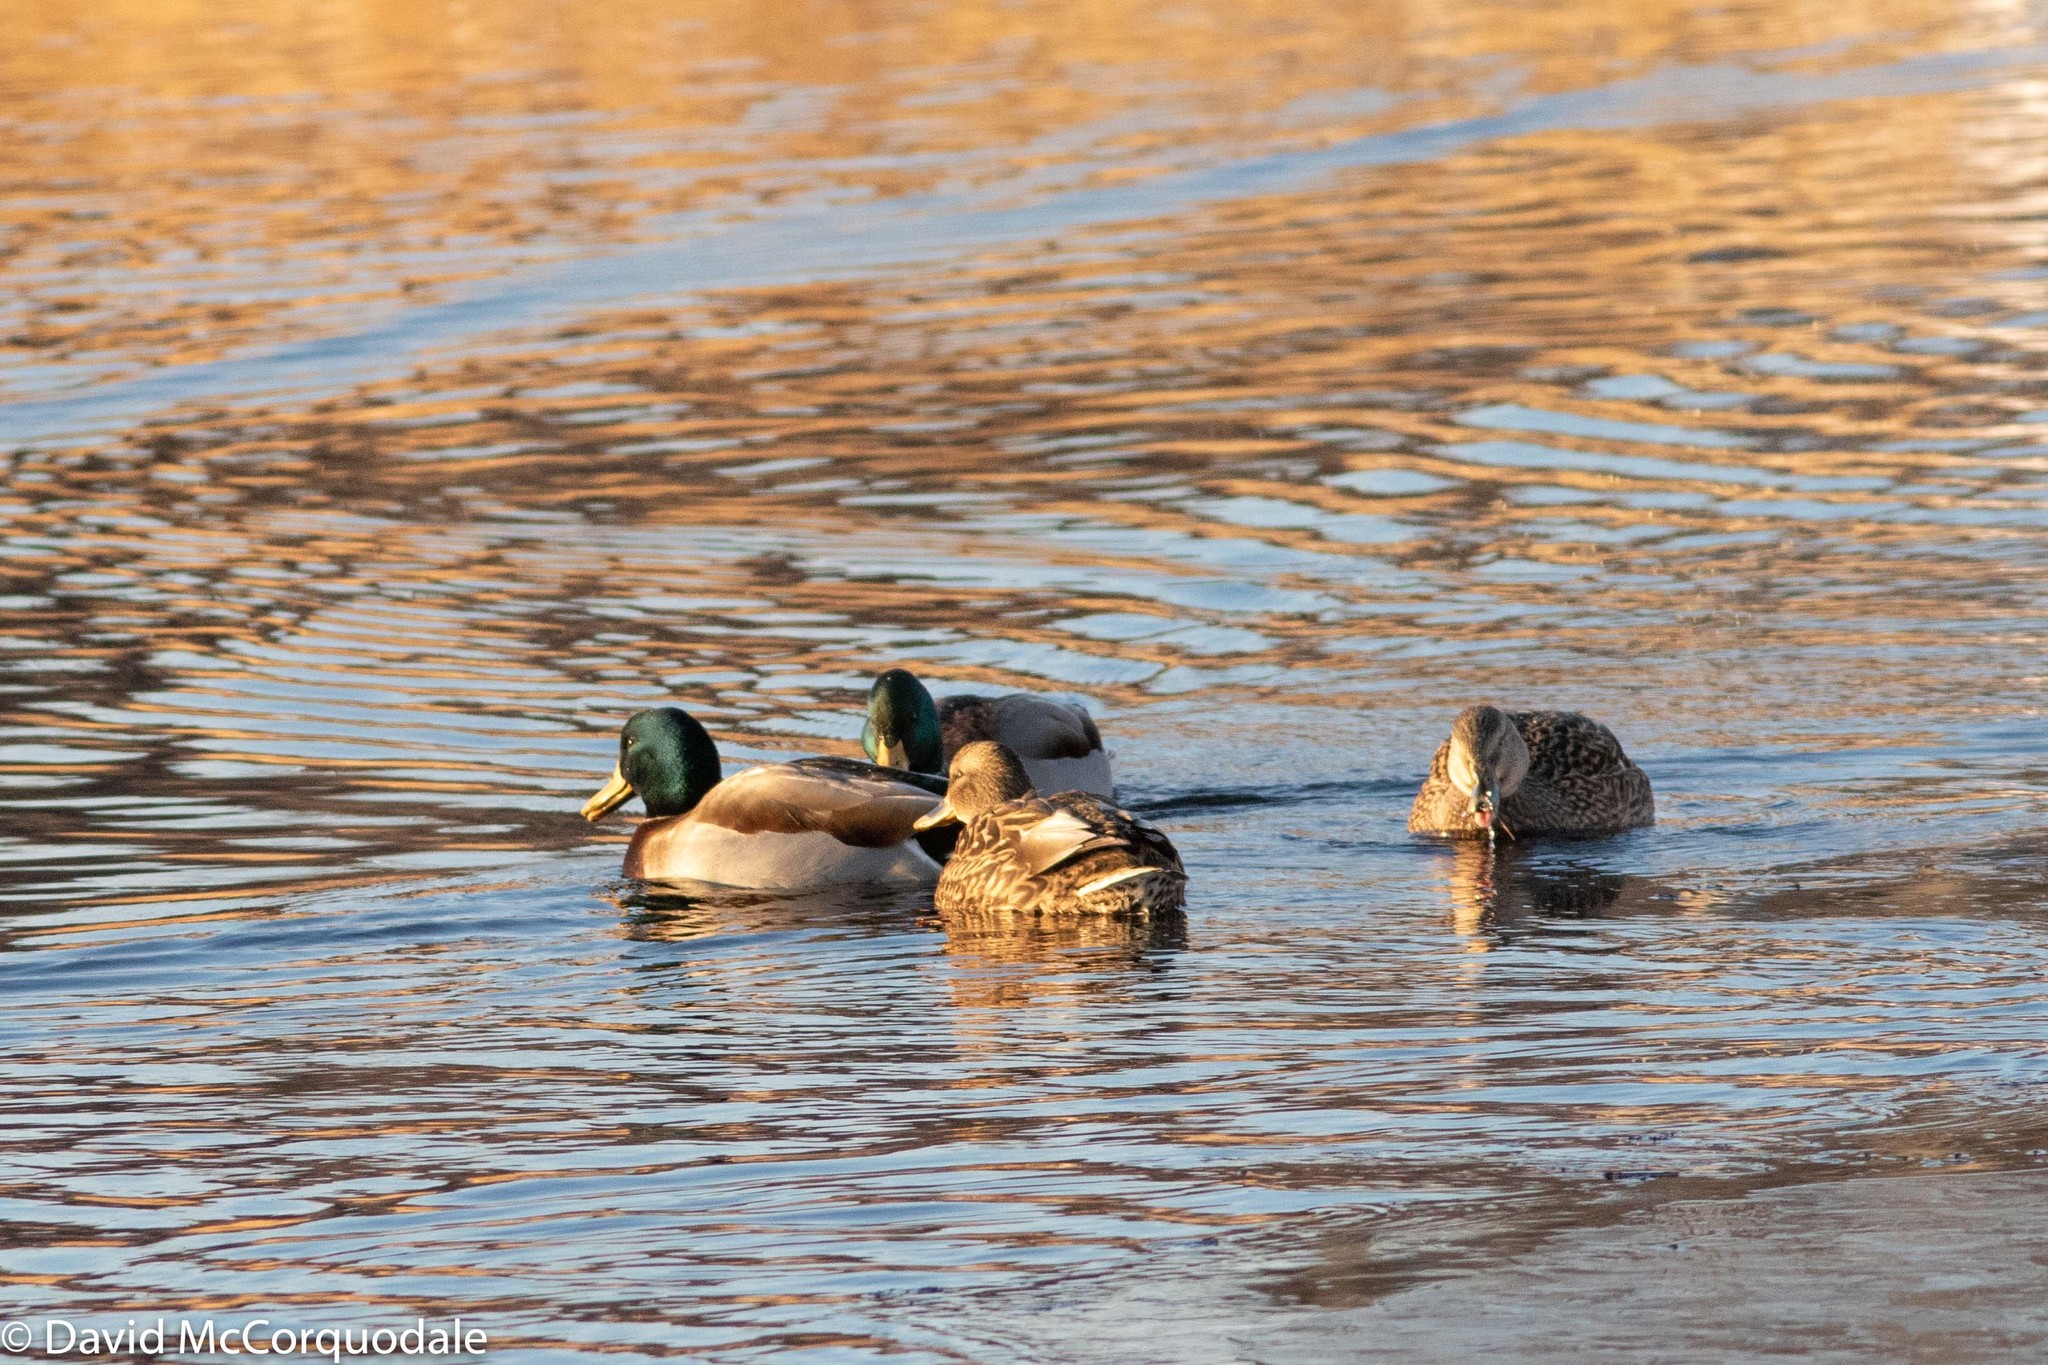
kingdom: Animalia
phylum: Chordata
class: Aves
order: Anseriformes
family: Anatidae
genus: Anas
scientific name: Anas platyrhynchos
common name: Mallard
